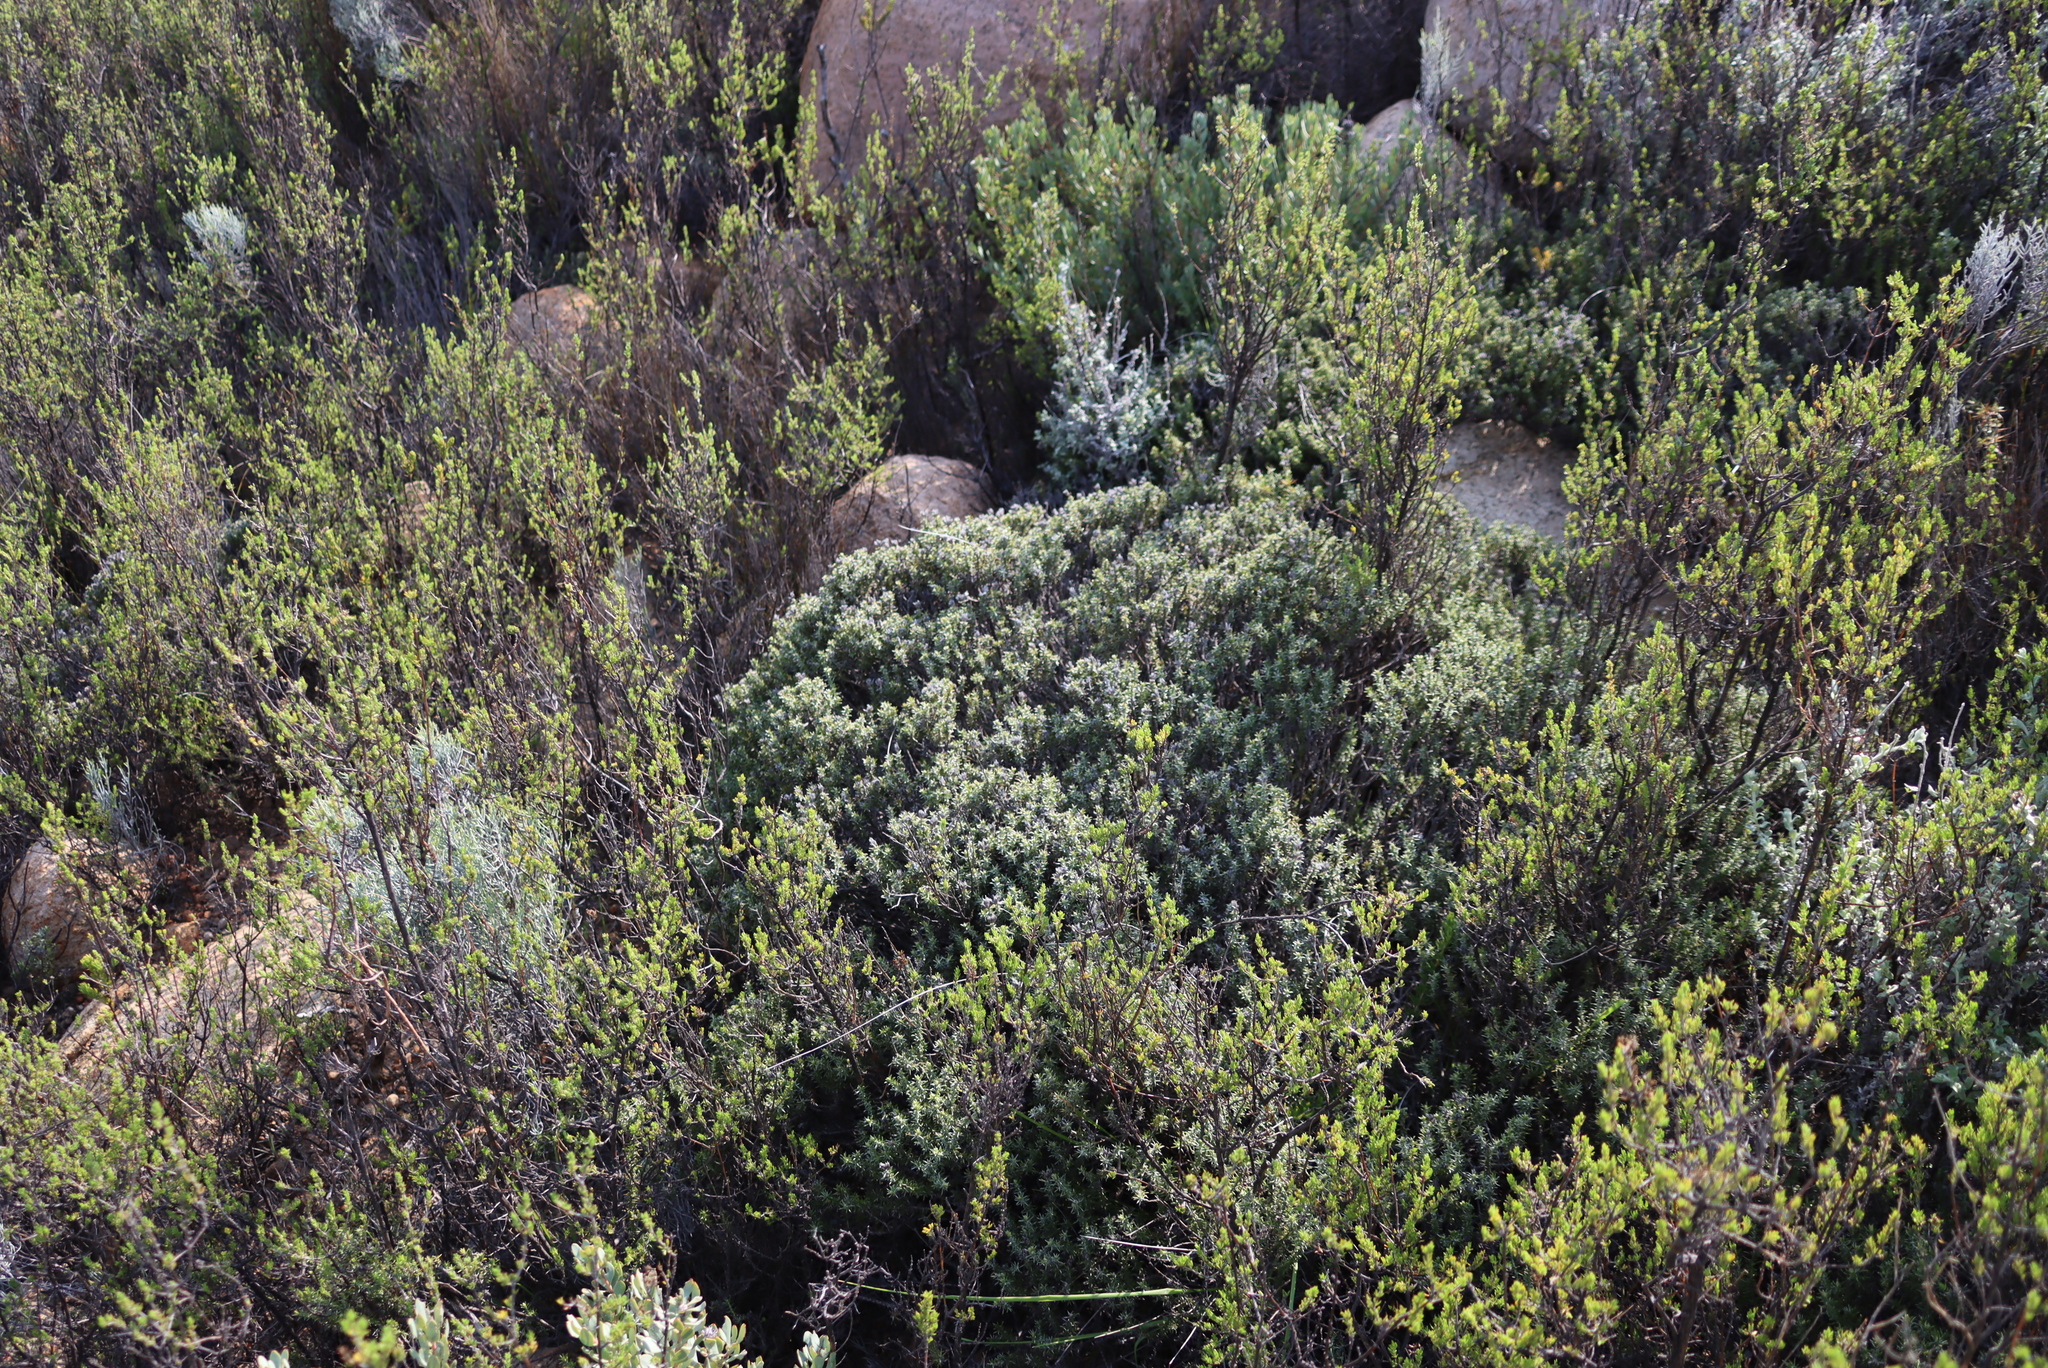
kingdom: Plantae
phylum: Tracheophyta
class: Magnoliopsida
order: Asterales
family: Asteraceae
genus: Metalasia
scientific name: Metalasia namaquana
